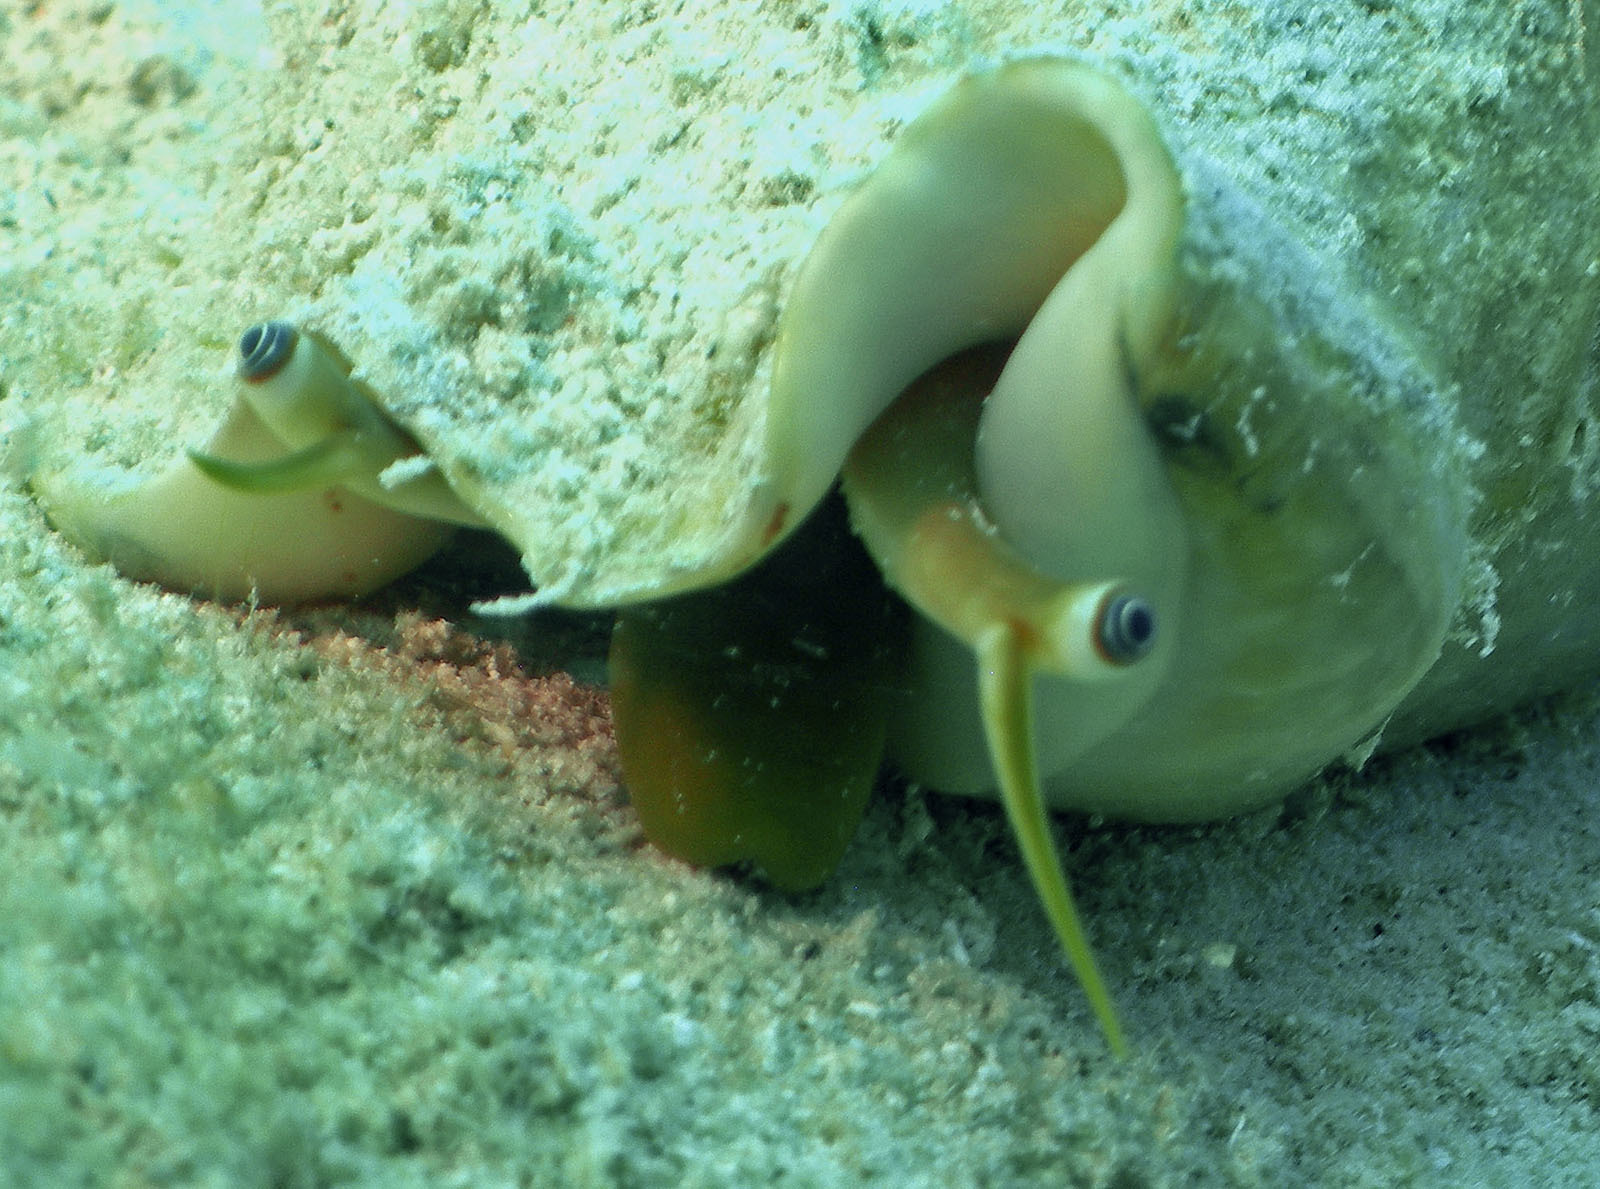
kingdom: Animalia
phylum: Mollusca
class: Gastropoda
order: Littorinimorpha
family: Strombidae
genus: Macrostrombus
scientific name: Macrostrombus costatus
